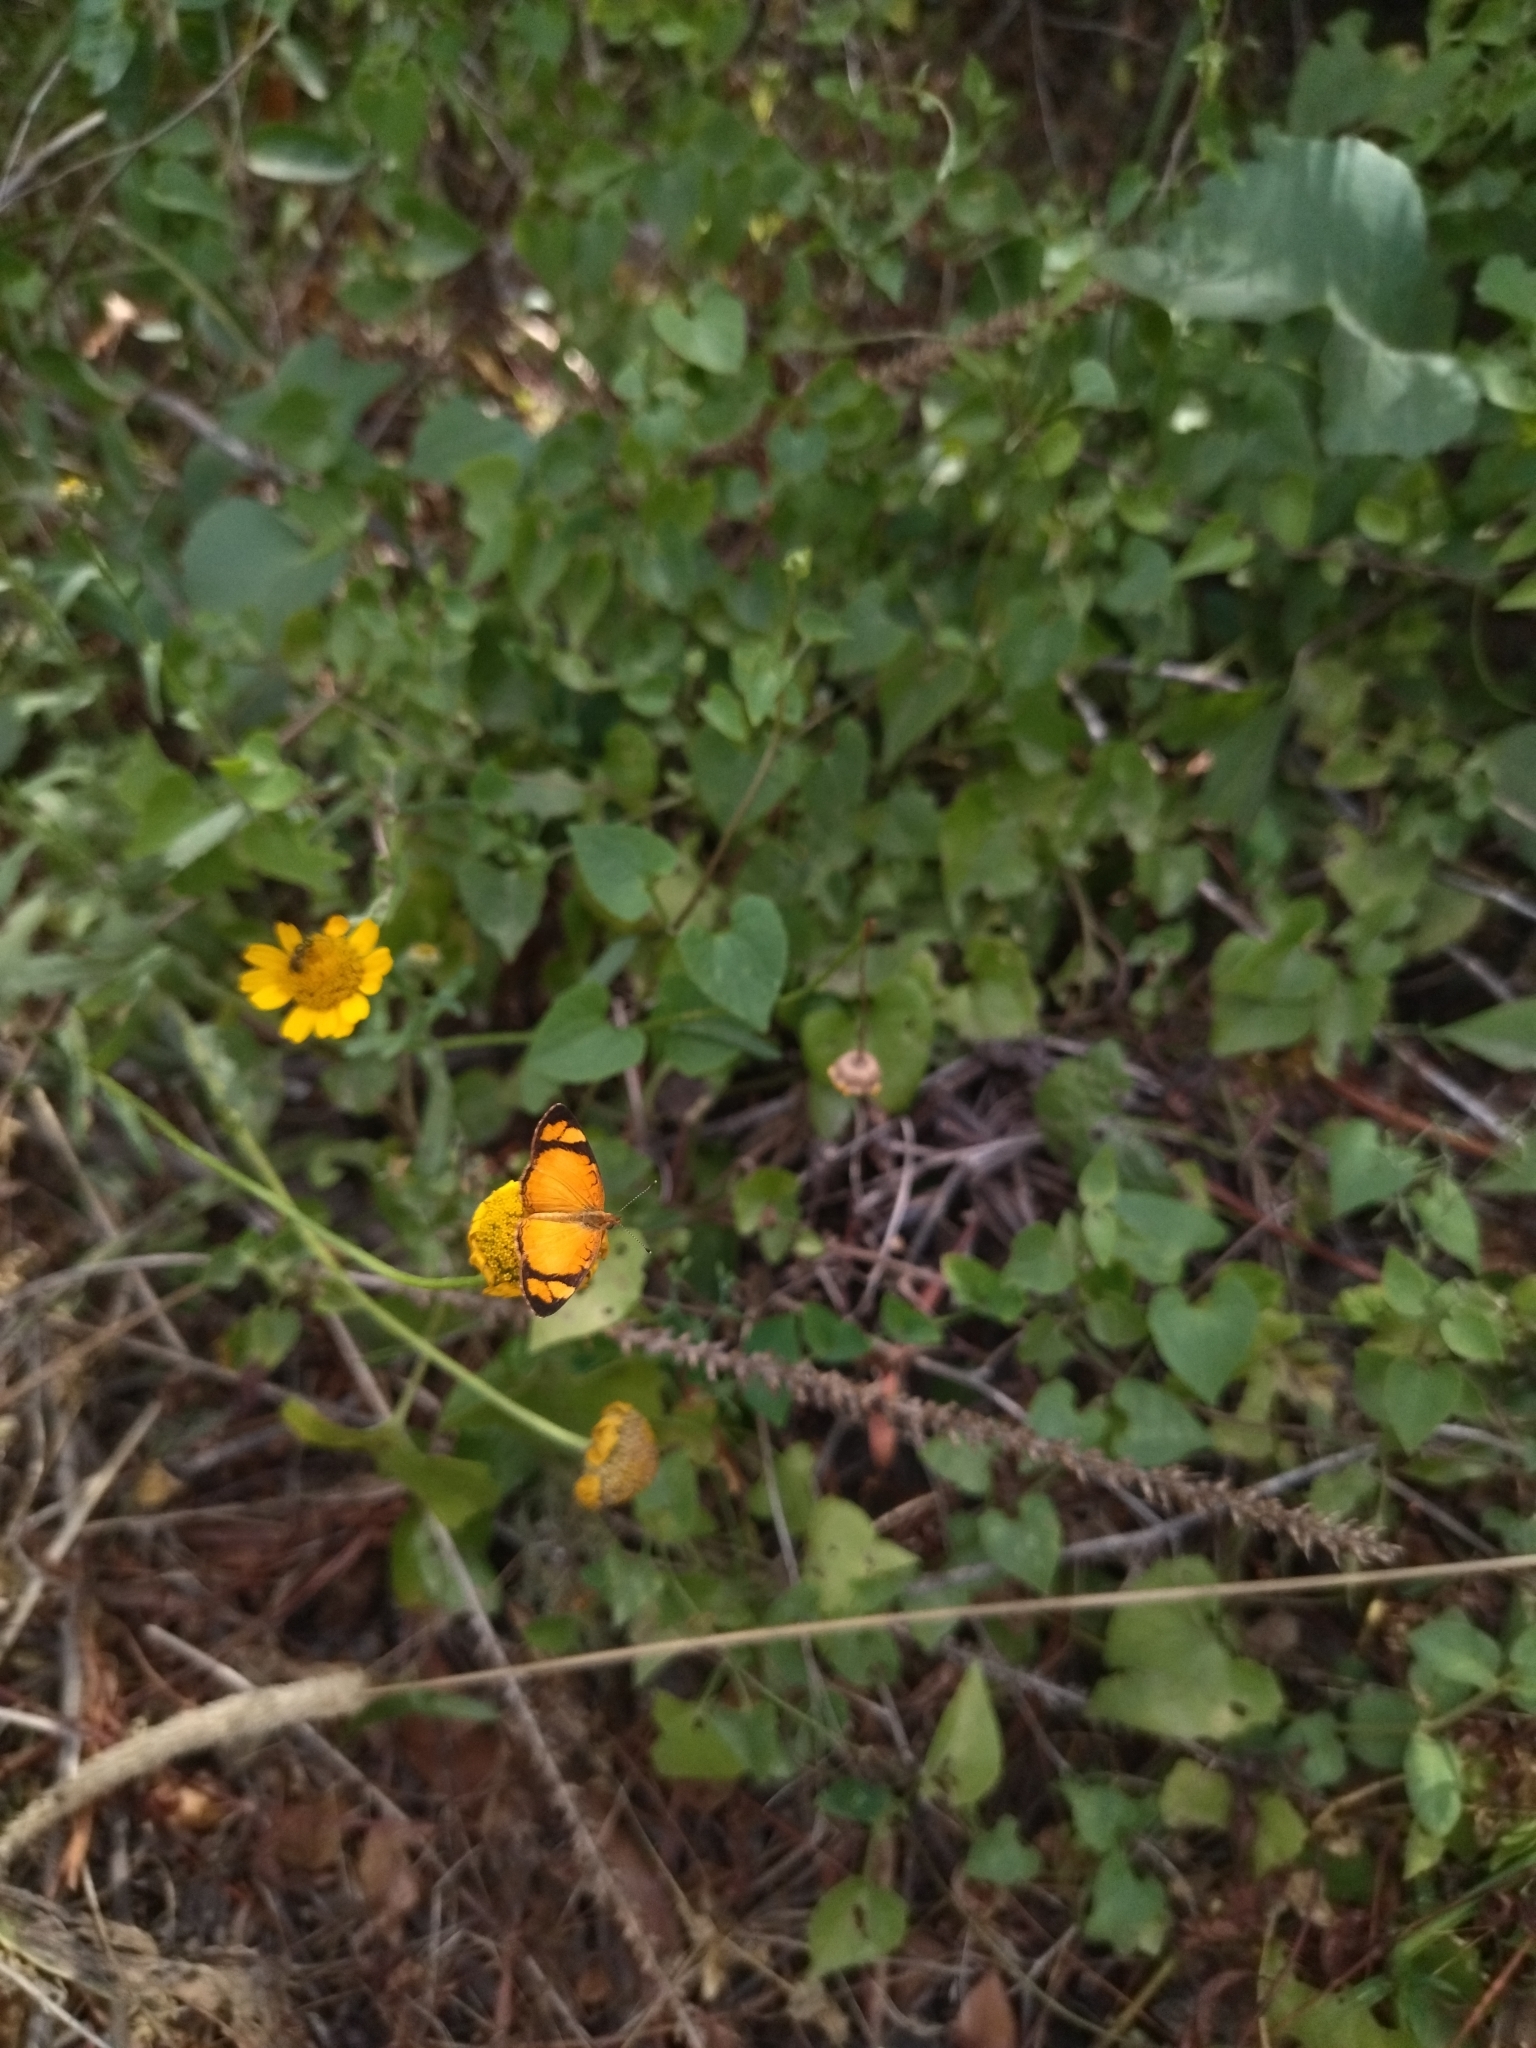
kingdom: Animalia
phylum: Arthropoda
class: Insecta
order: Lepidoptera
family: Nymphalidae
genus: Tegosa
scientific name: Tegosa claudina
